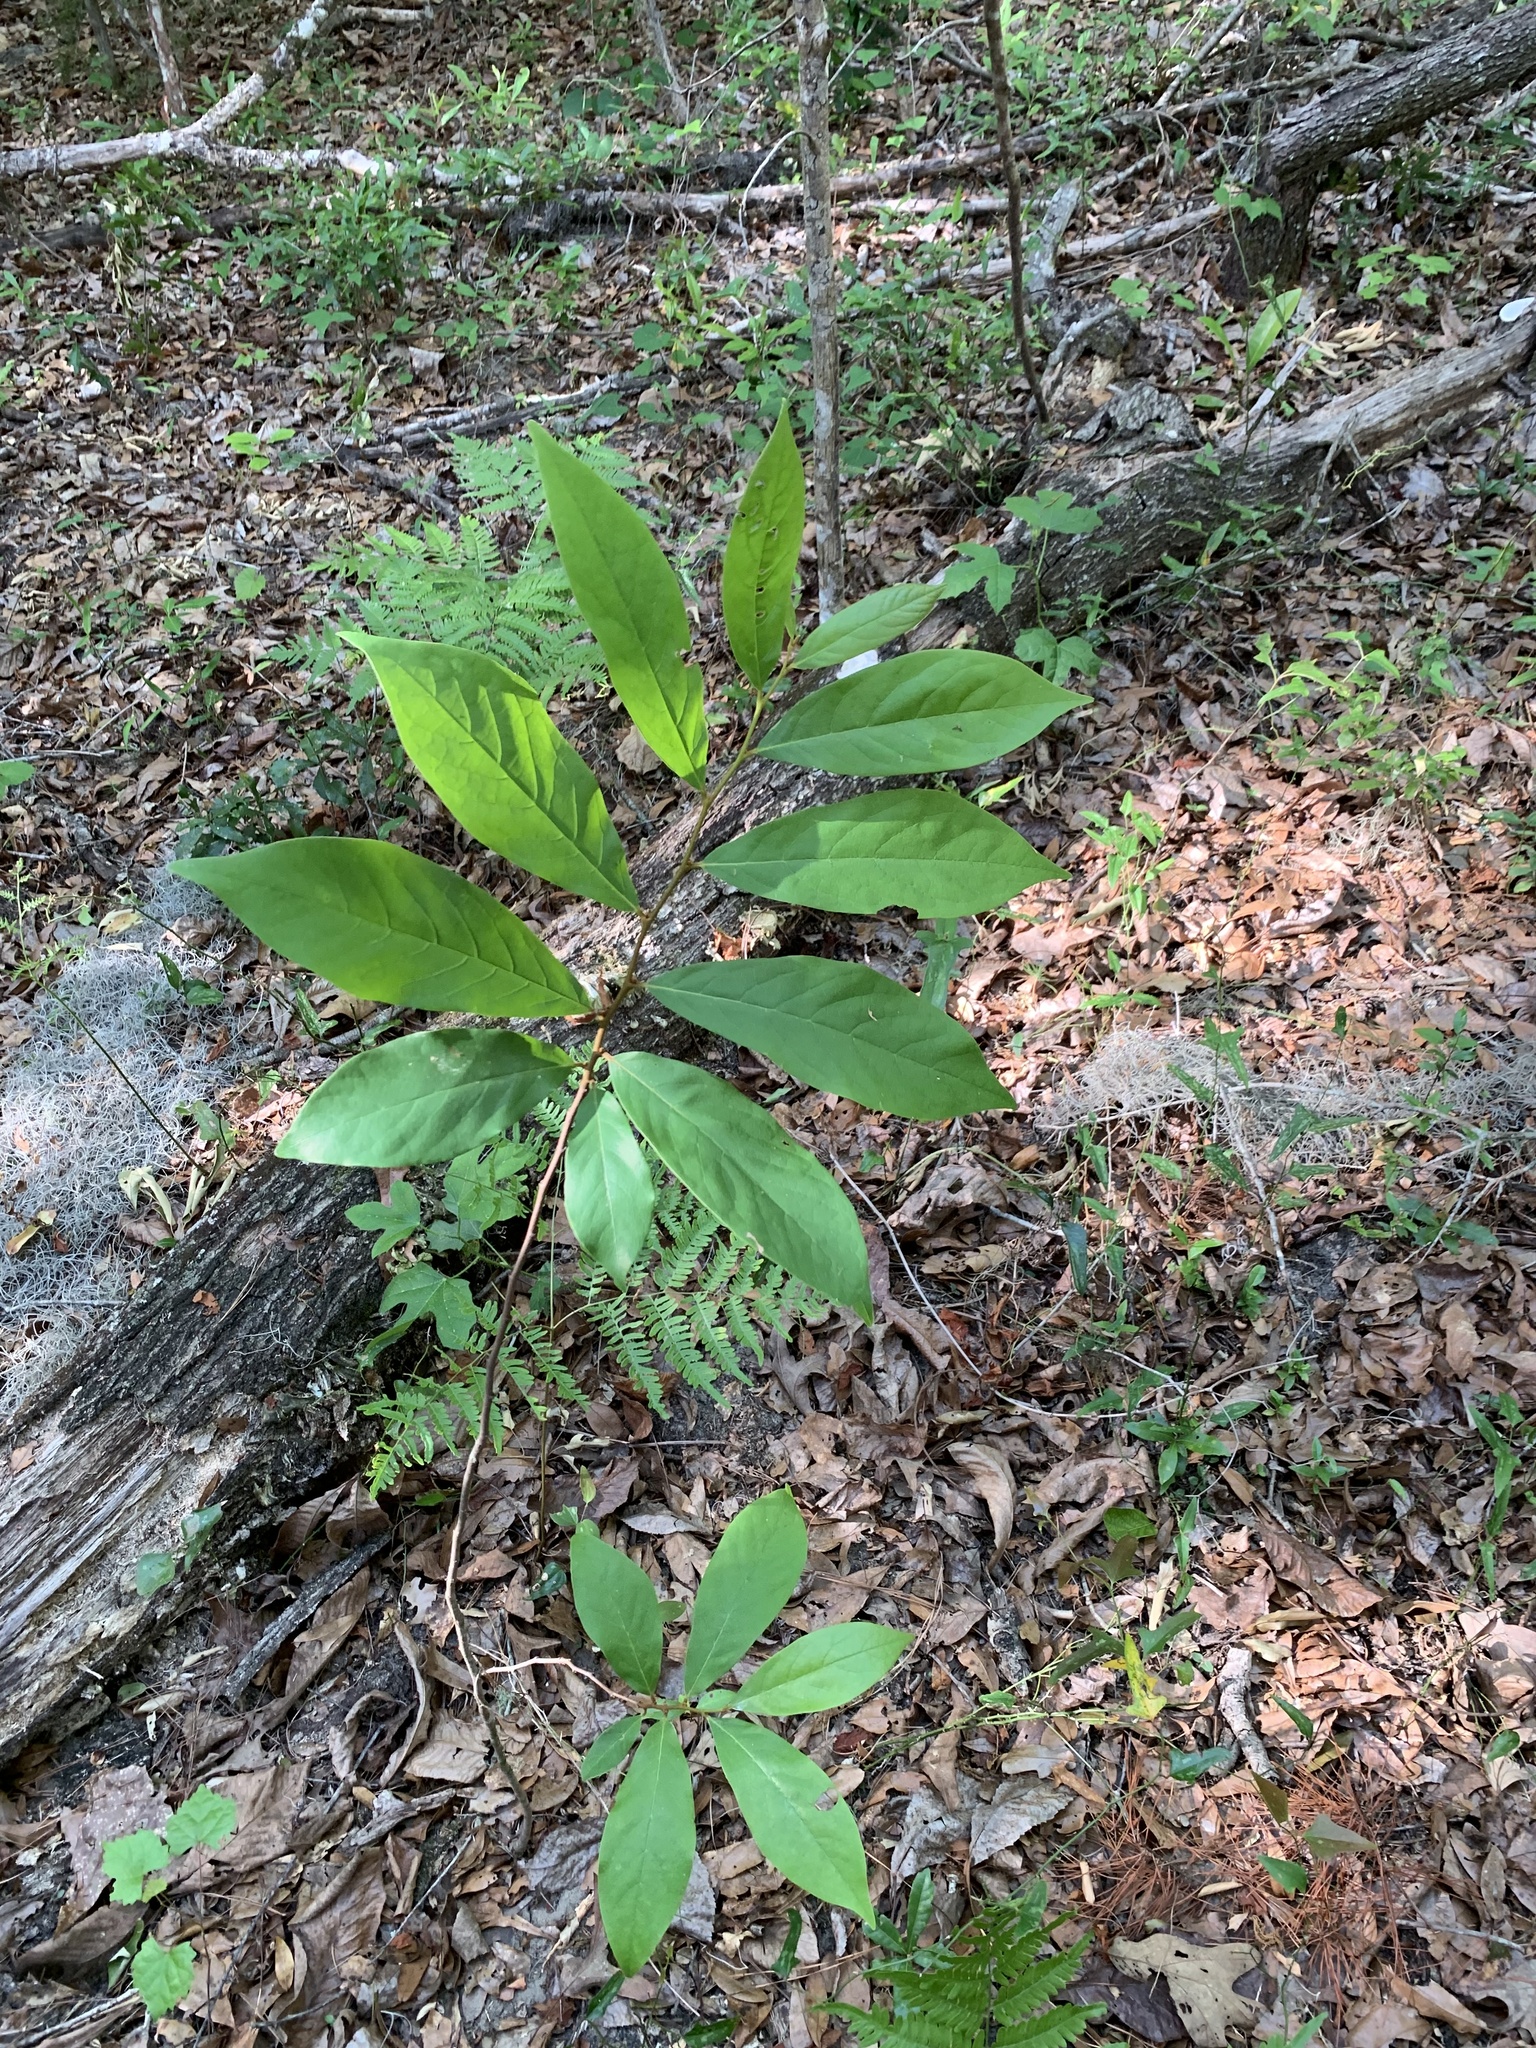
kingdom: Plantae
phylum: Tracheophyta
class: Magnoliopsida
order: Magnoliales
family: Annonaceae
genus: Asimina
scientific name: Asimina parviflora
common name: Dwarf pawpaw
